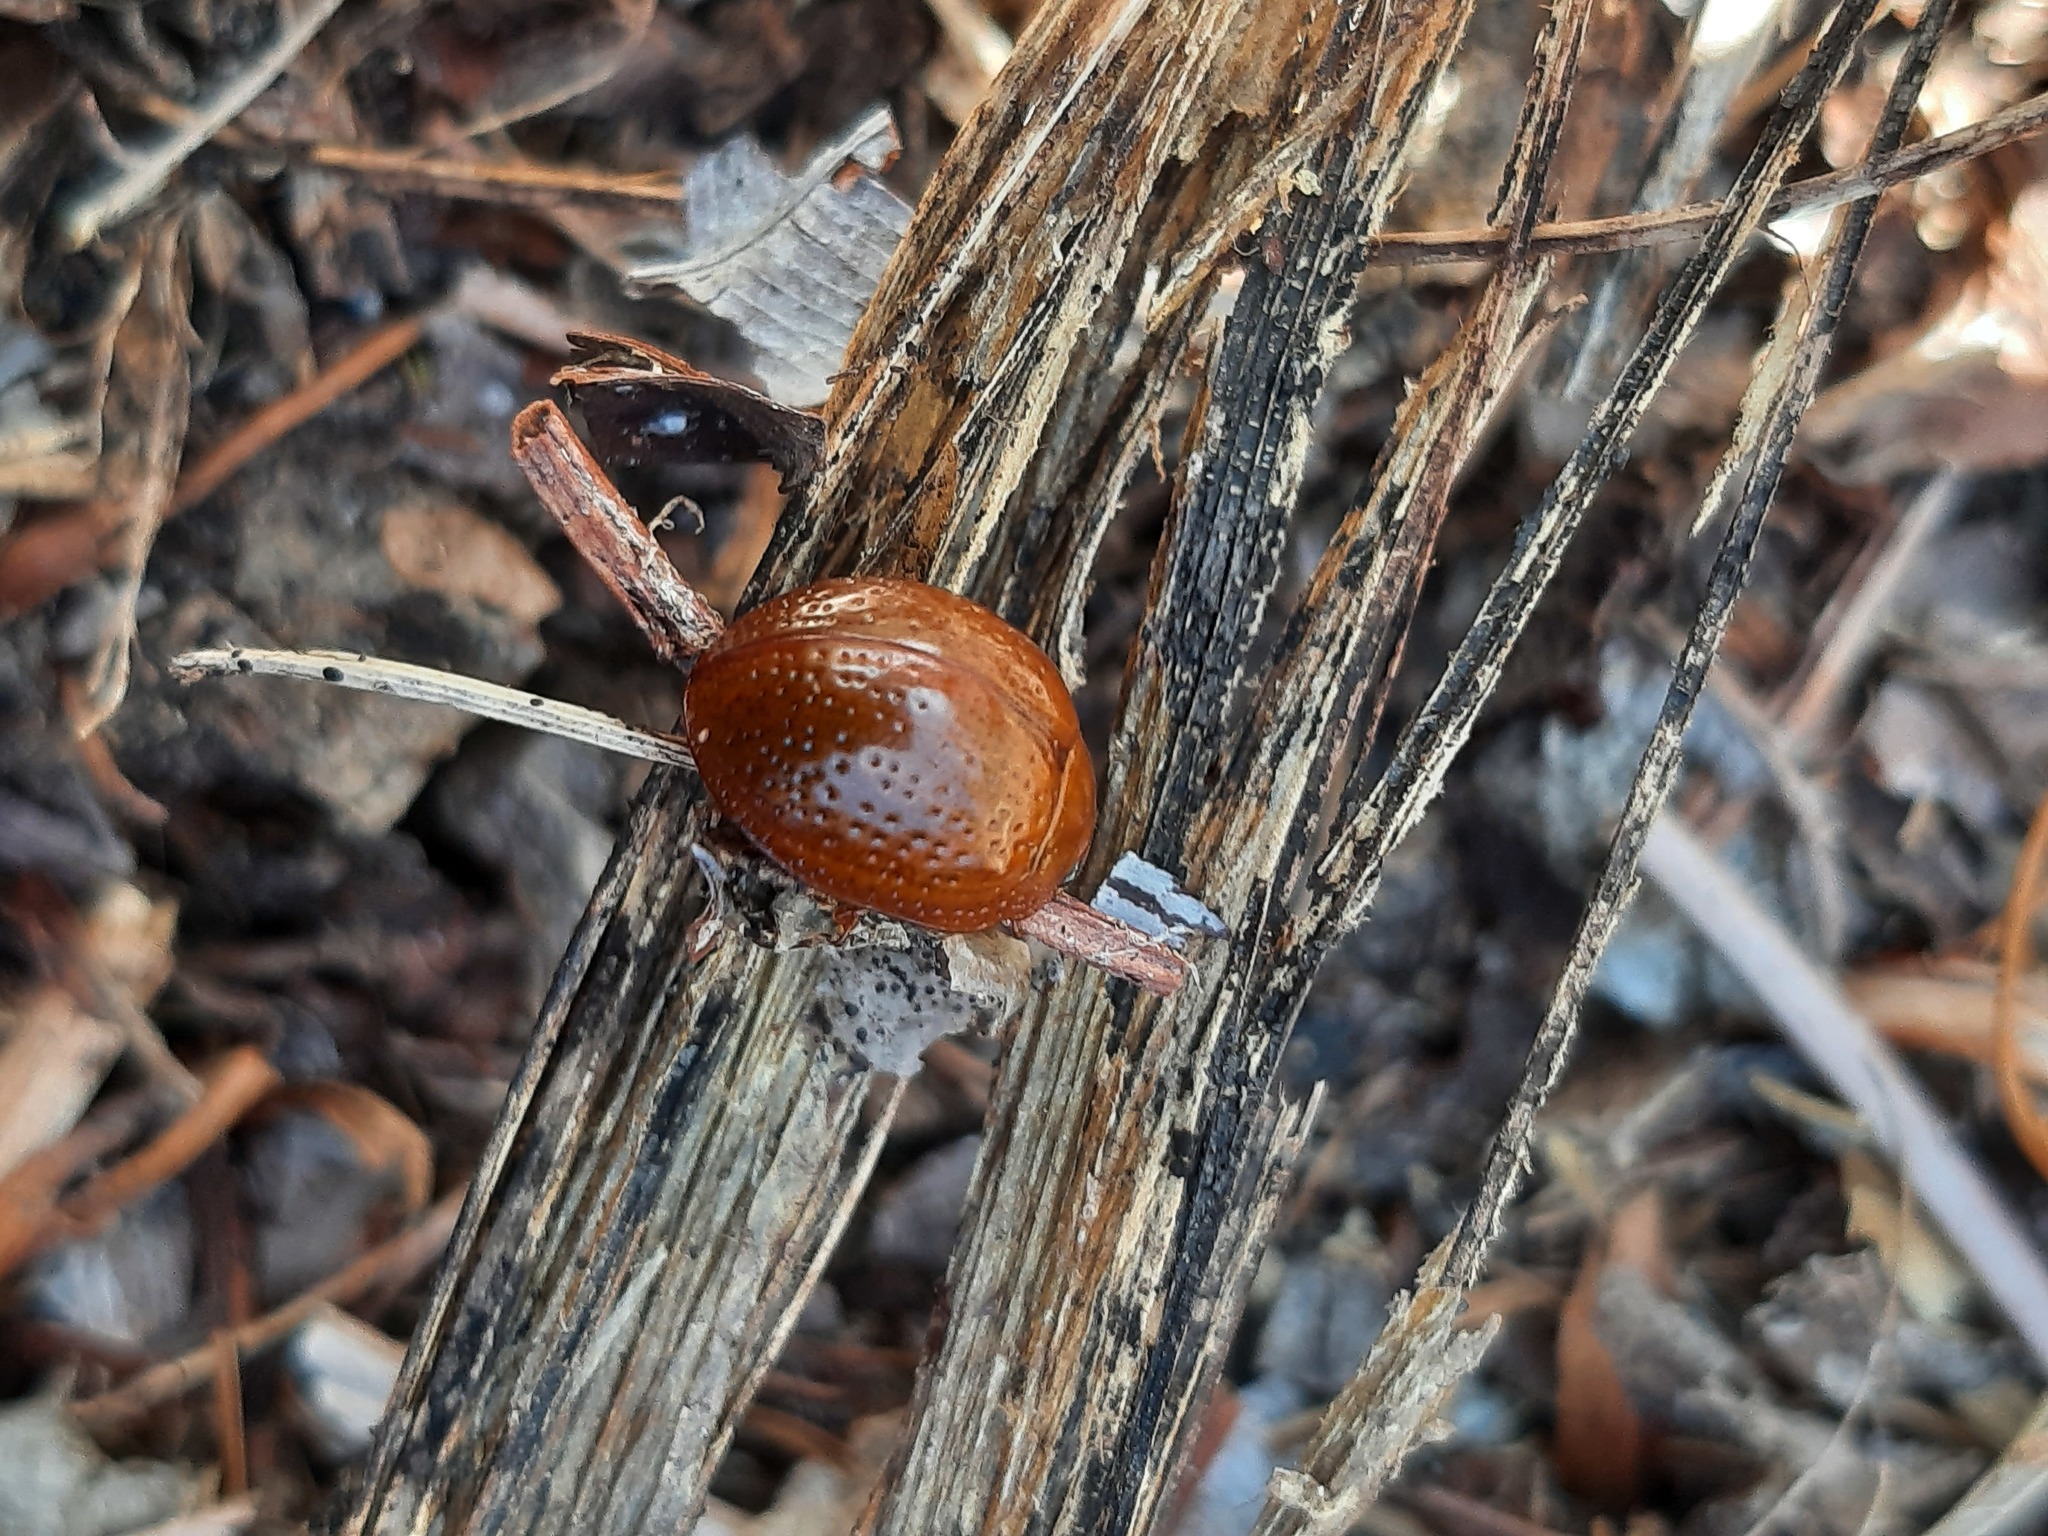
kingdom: Animalia
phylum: Arthropoda
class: Insecta
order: Coleoptera
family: Chrysomelidae
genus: Dicranosterna
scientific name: Dicranosterna
